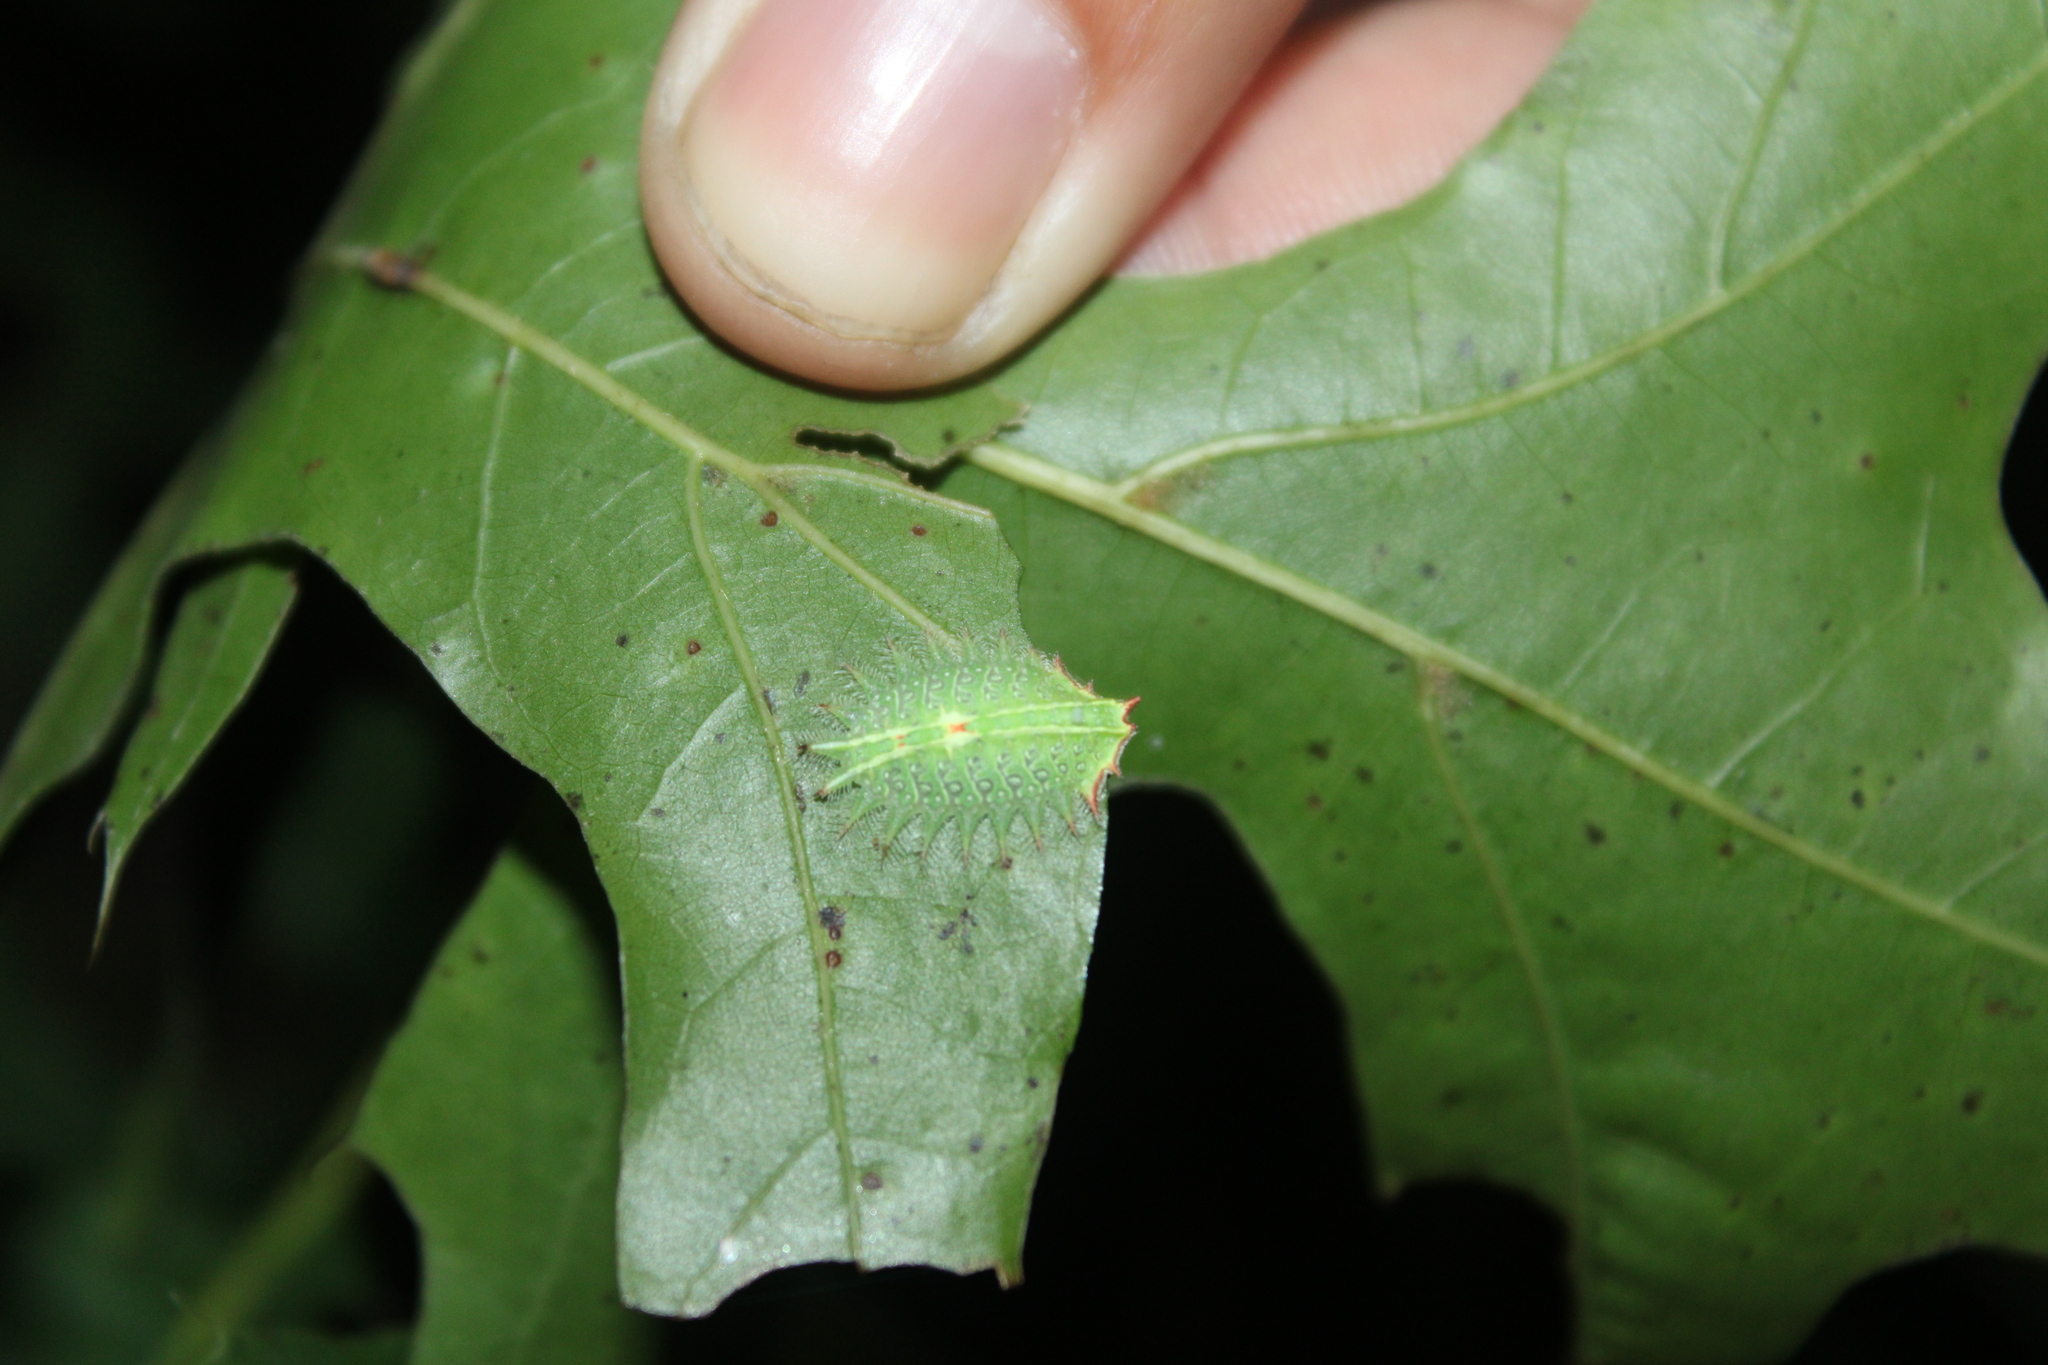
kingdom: Animalia
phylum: Arthropoda
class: Insecta
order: Lepidoptera
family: Limacodidae
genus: Isa
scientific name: Isa textula
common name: Crowned slug moth
